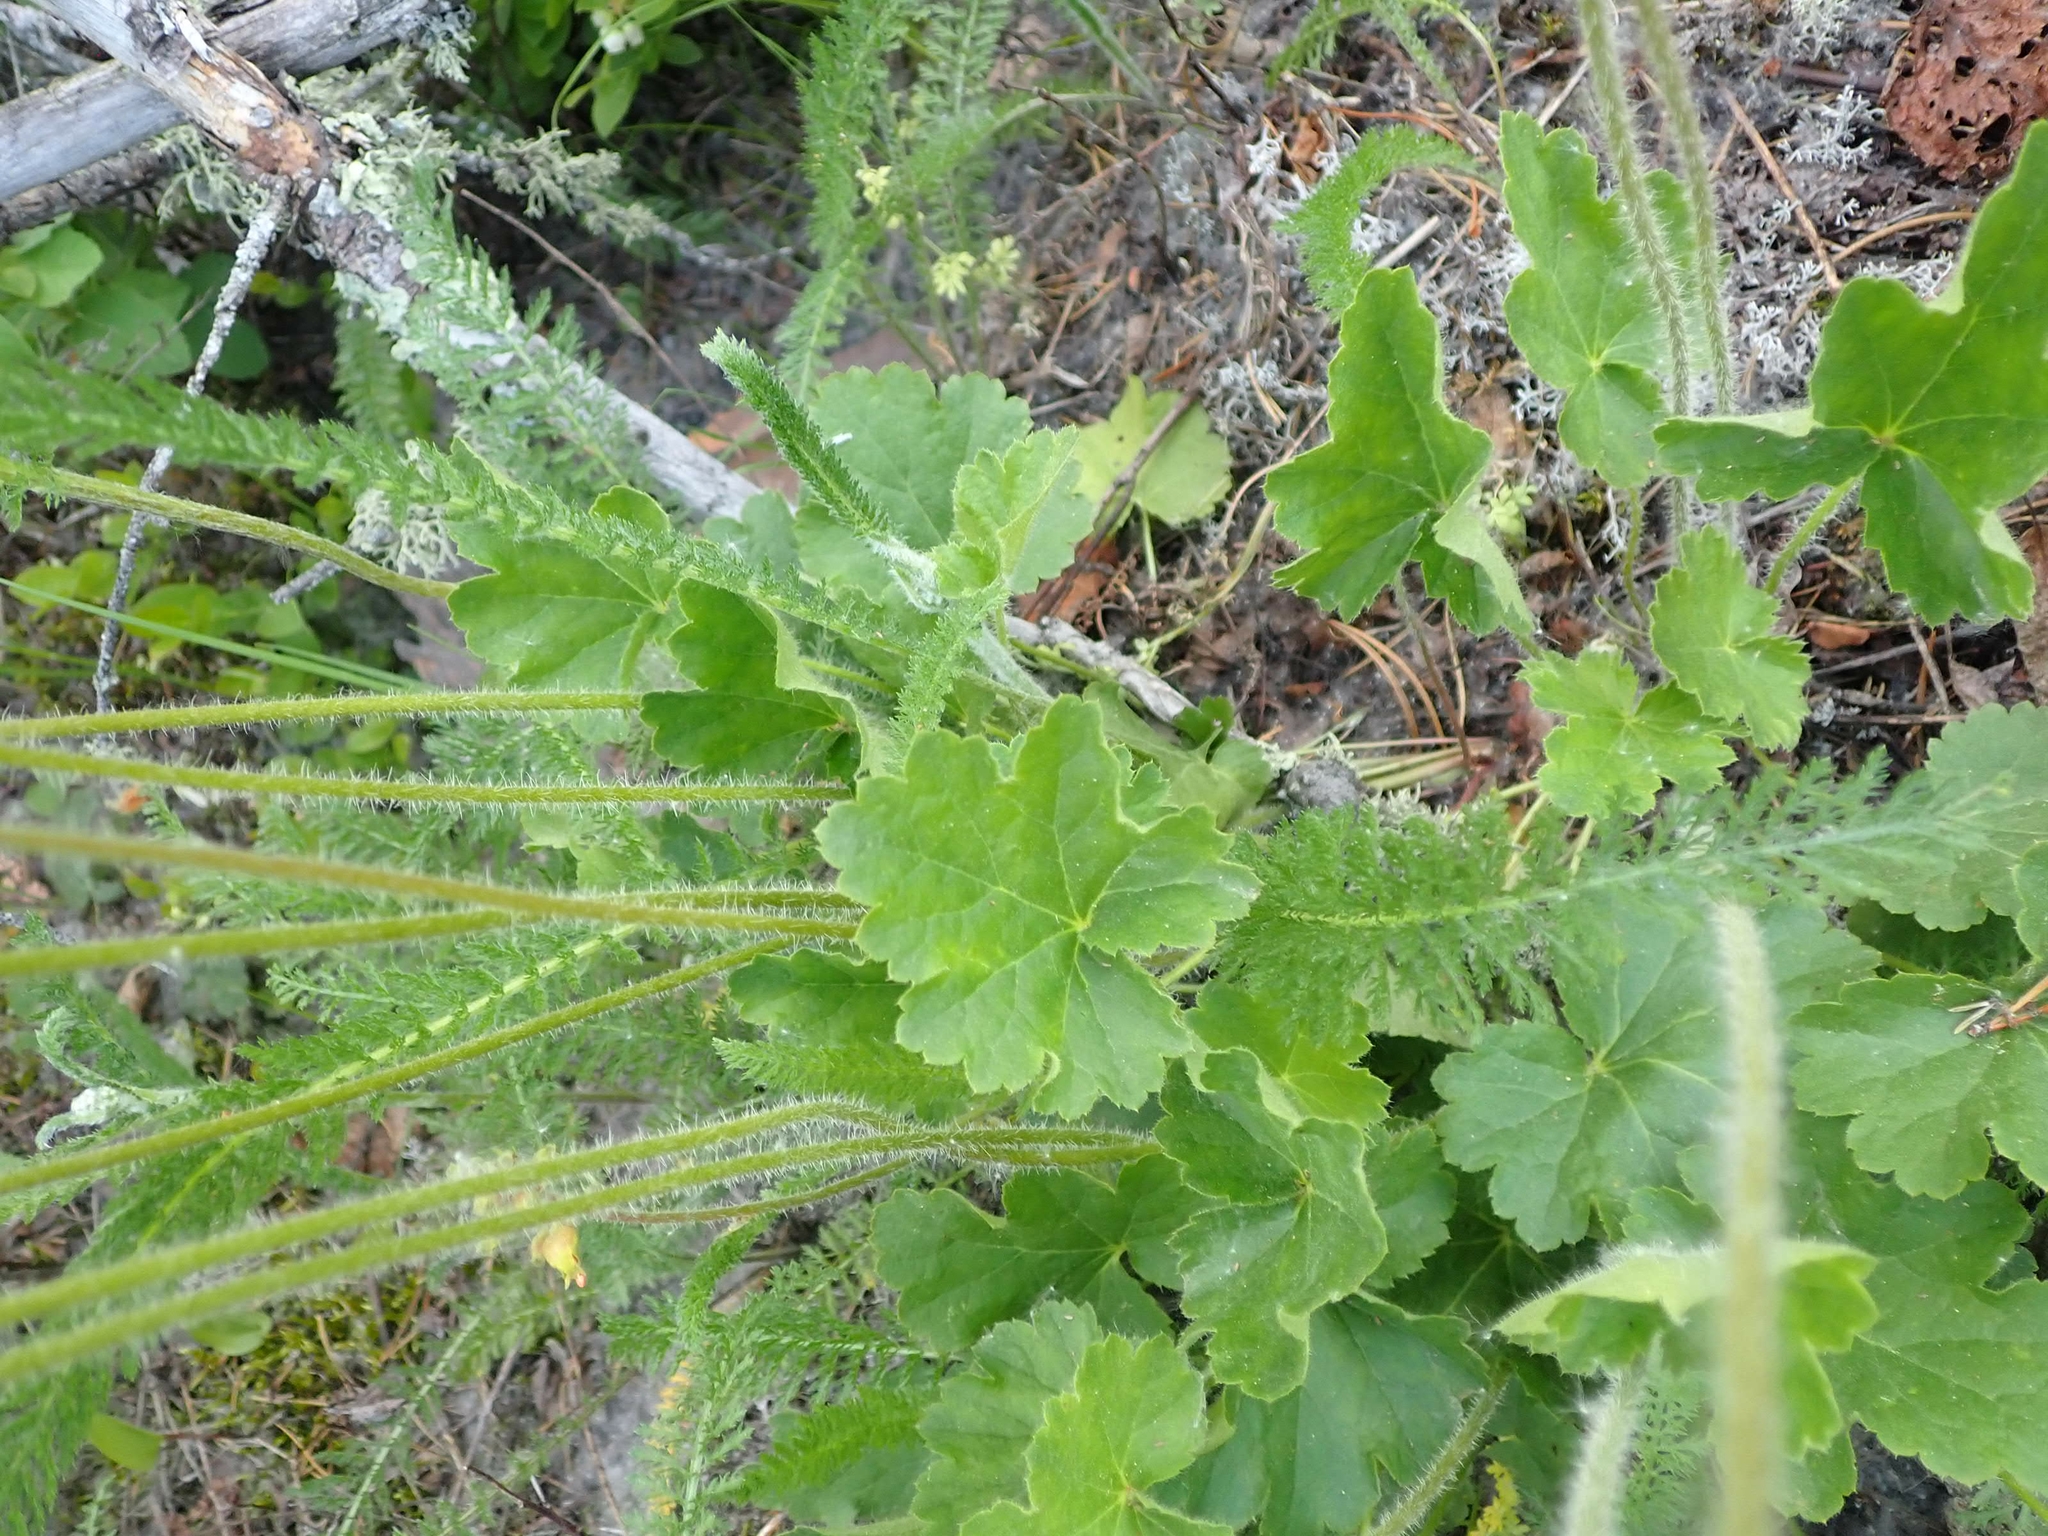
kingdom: Plantae
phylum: Tracheophyta
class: Magnoliopsida
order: Saxifragales
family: Saxifragaceae
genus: Heuchera
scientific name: Heuchera richardsonii
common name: Richardson's alumroot
